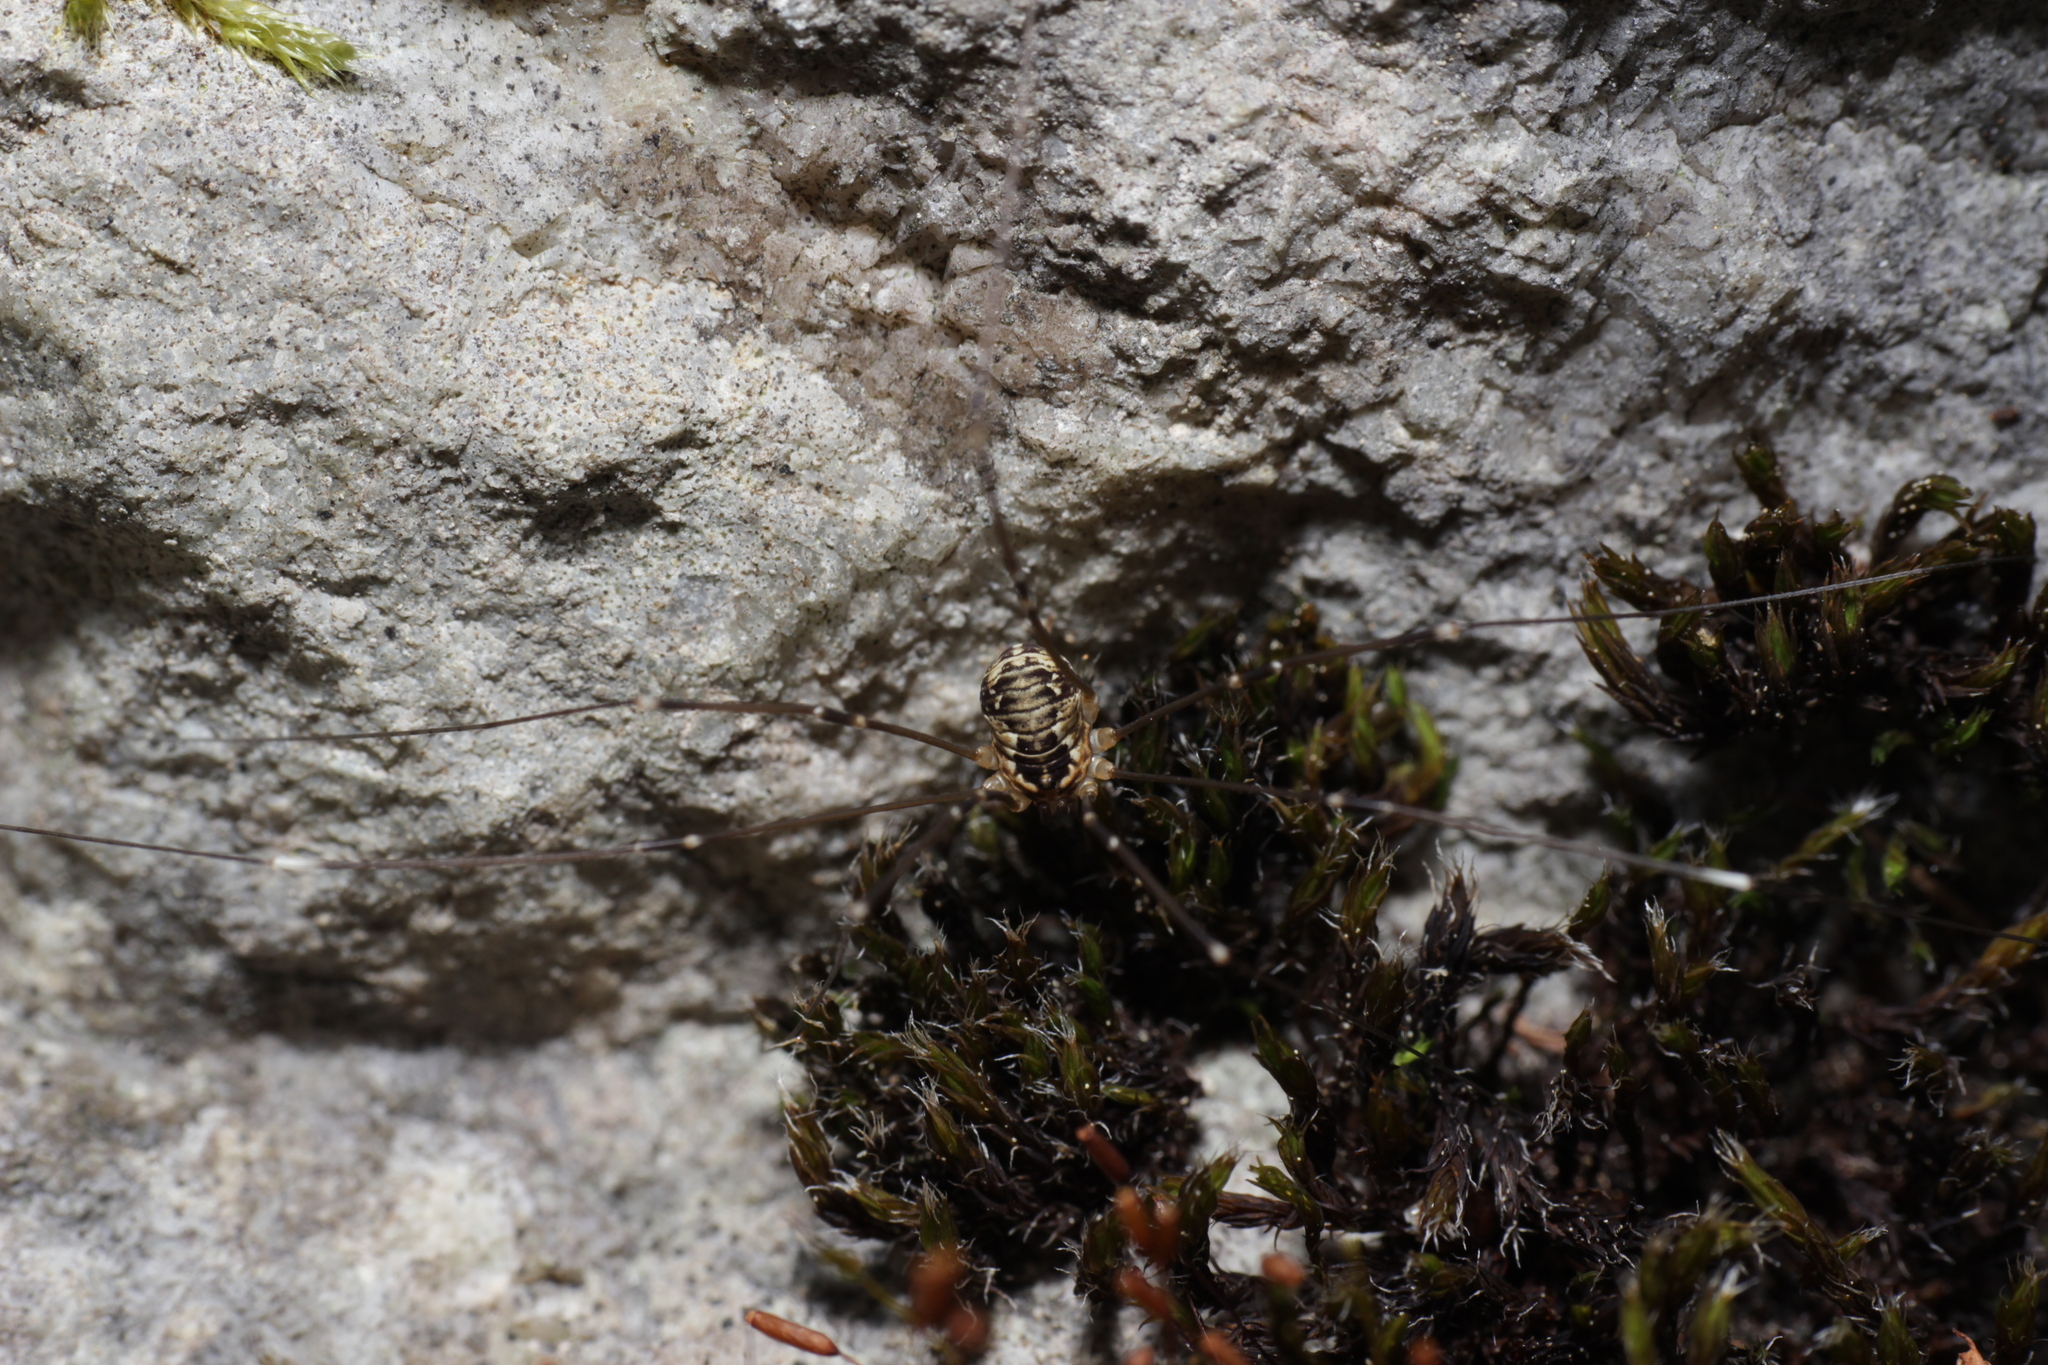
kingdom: Animalia
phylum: Arthropoda
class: Arachnida
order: Opiliones
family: Sclerosomatidae
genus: Leiobunum
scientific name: Leiobunum limbatum
